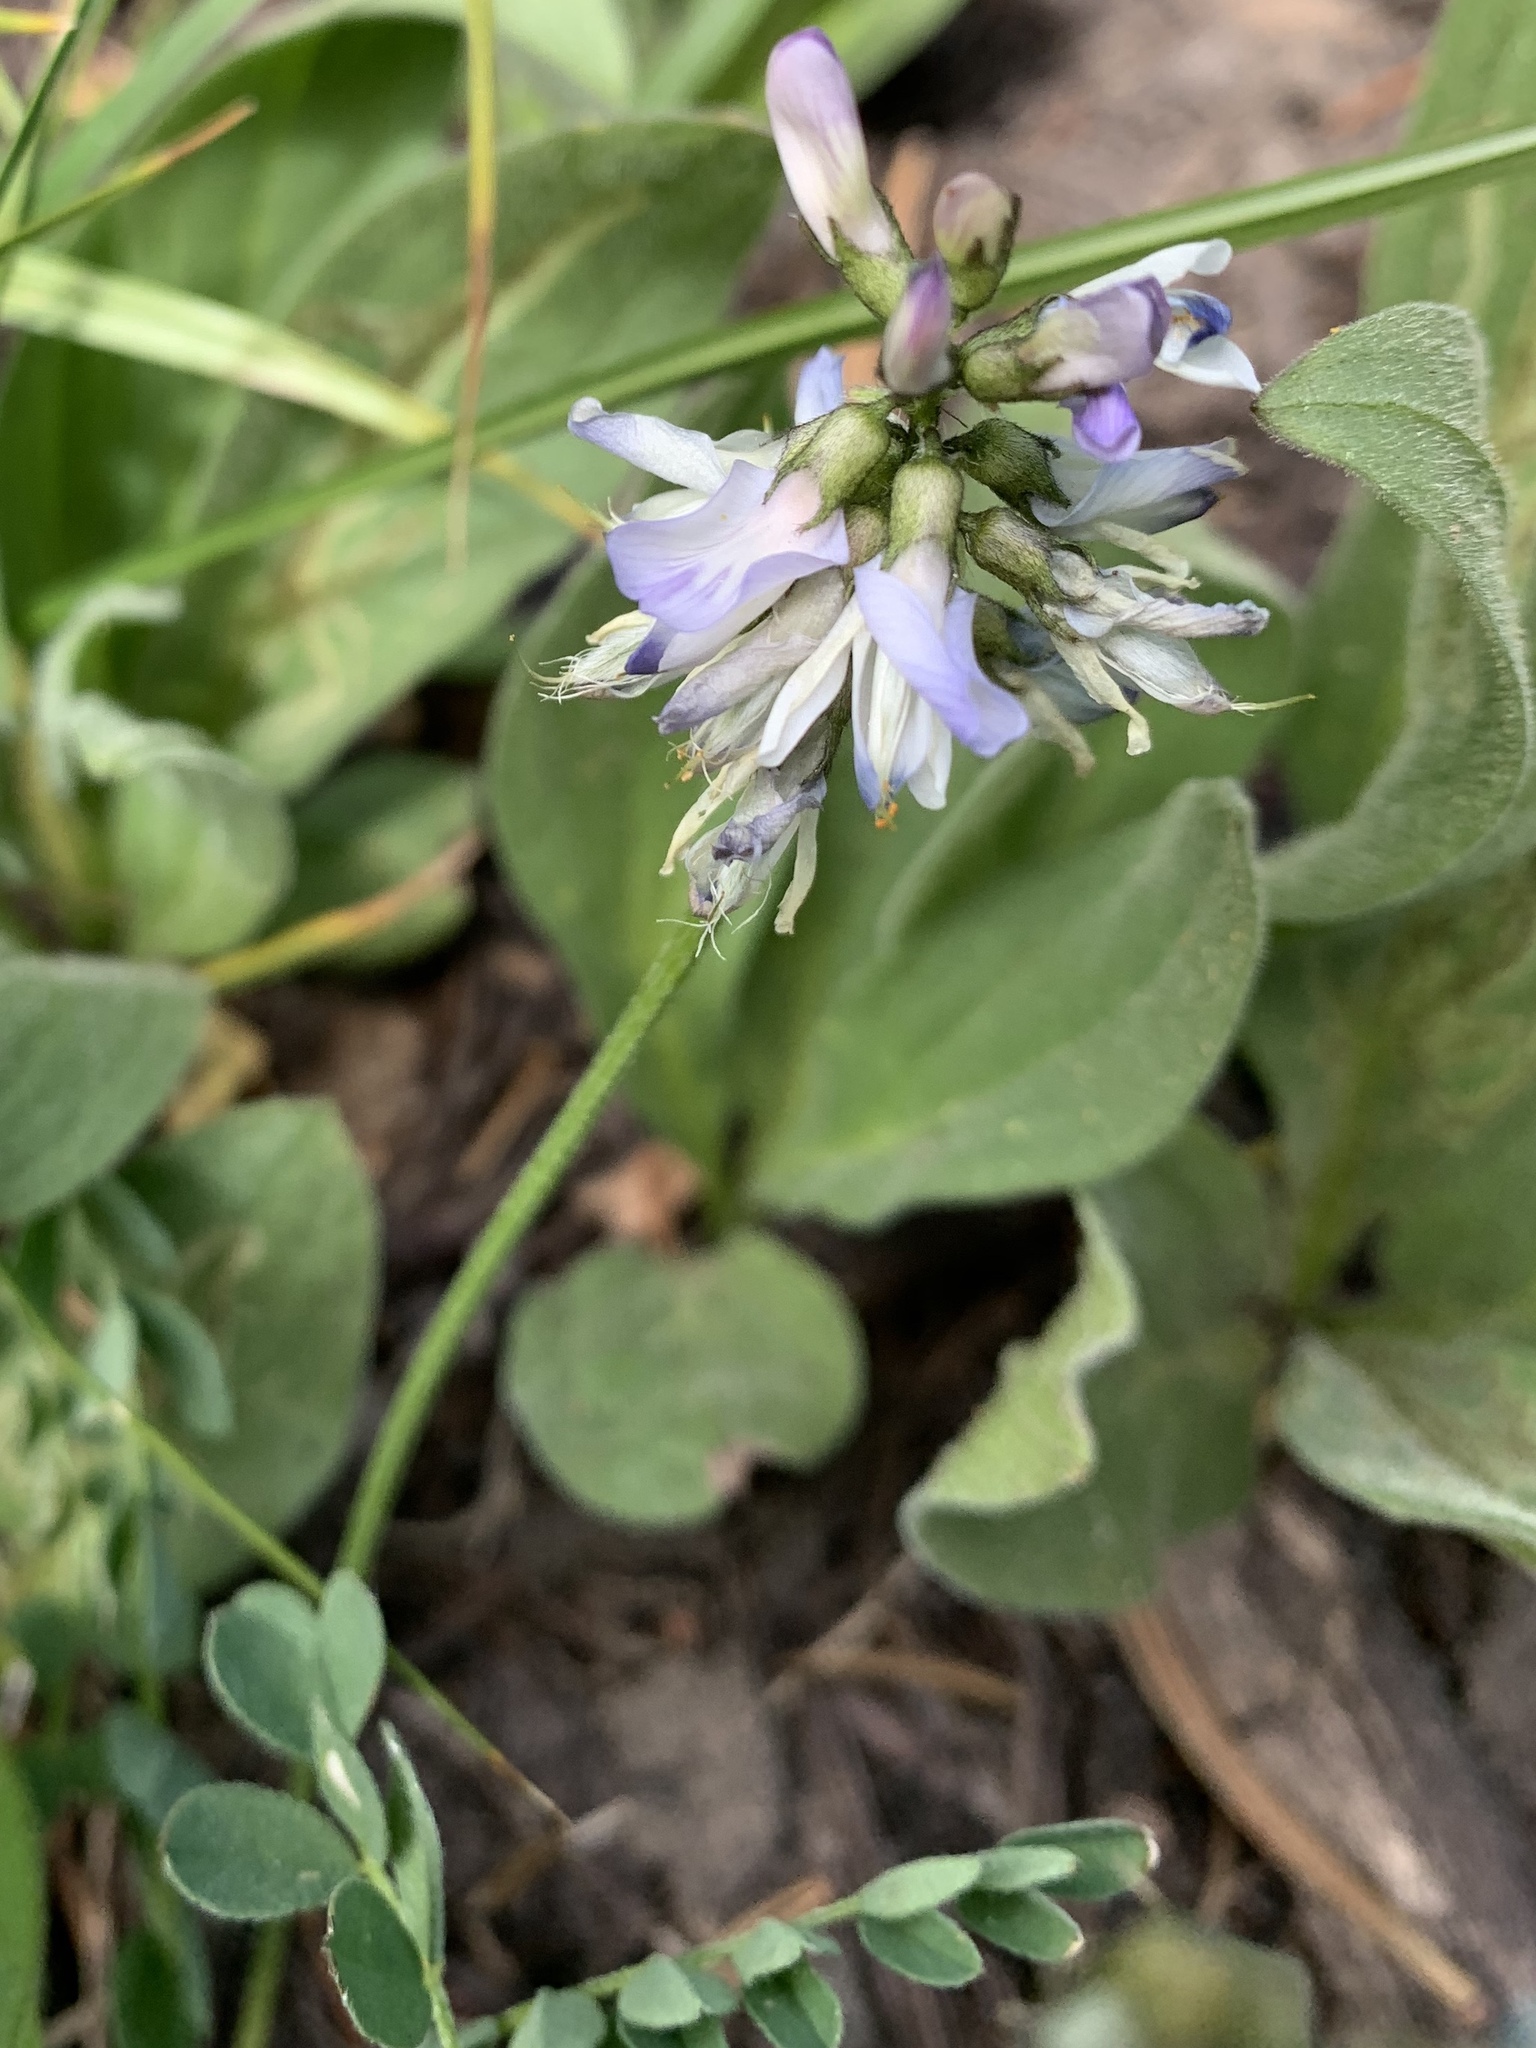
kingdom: Plantae
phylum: Tracheophyta
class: Magnoliopsida
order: Fabales
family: Fabaceae
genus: Astragalus
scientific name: Astragalus alpinus
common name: Alpine milk-vetch
